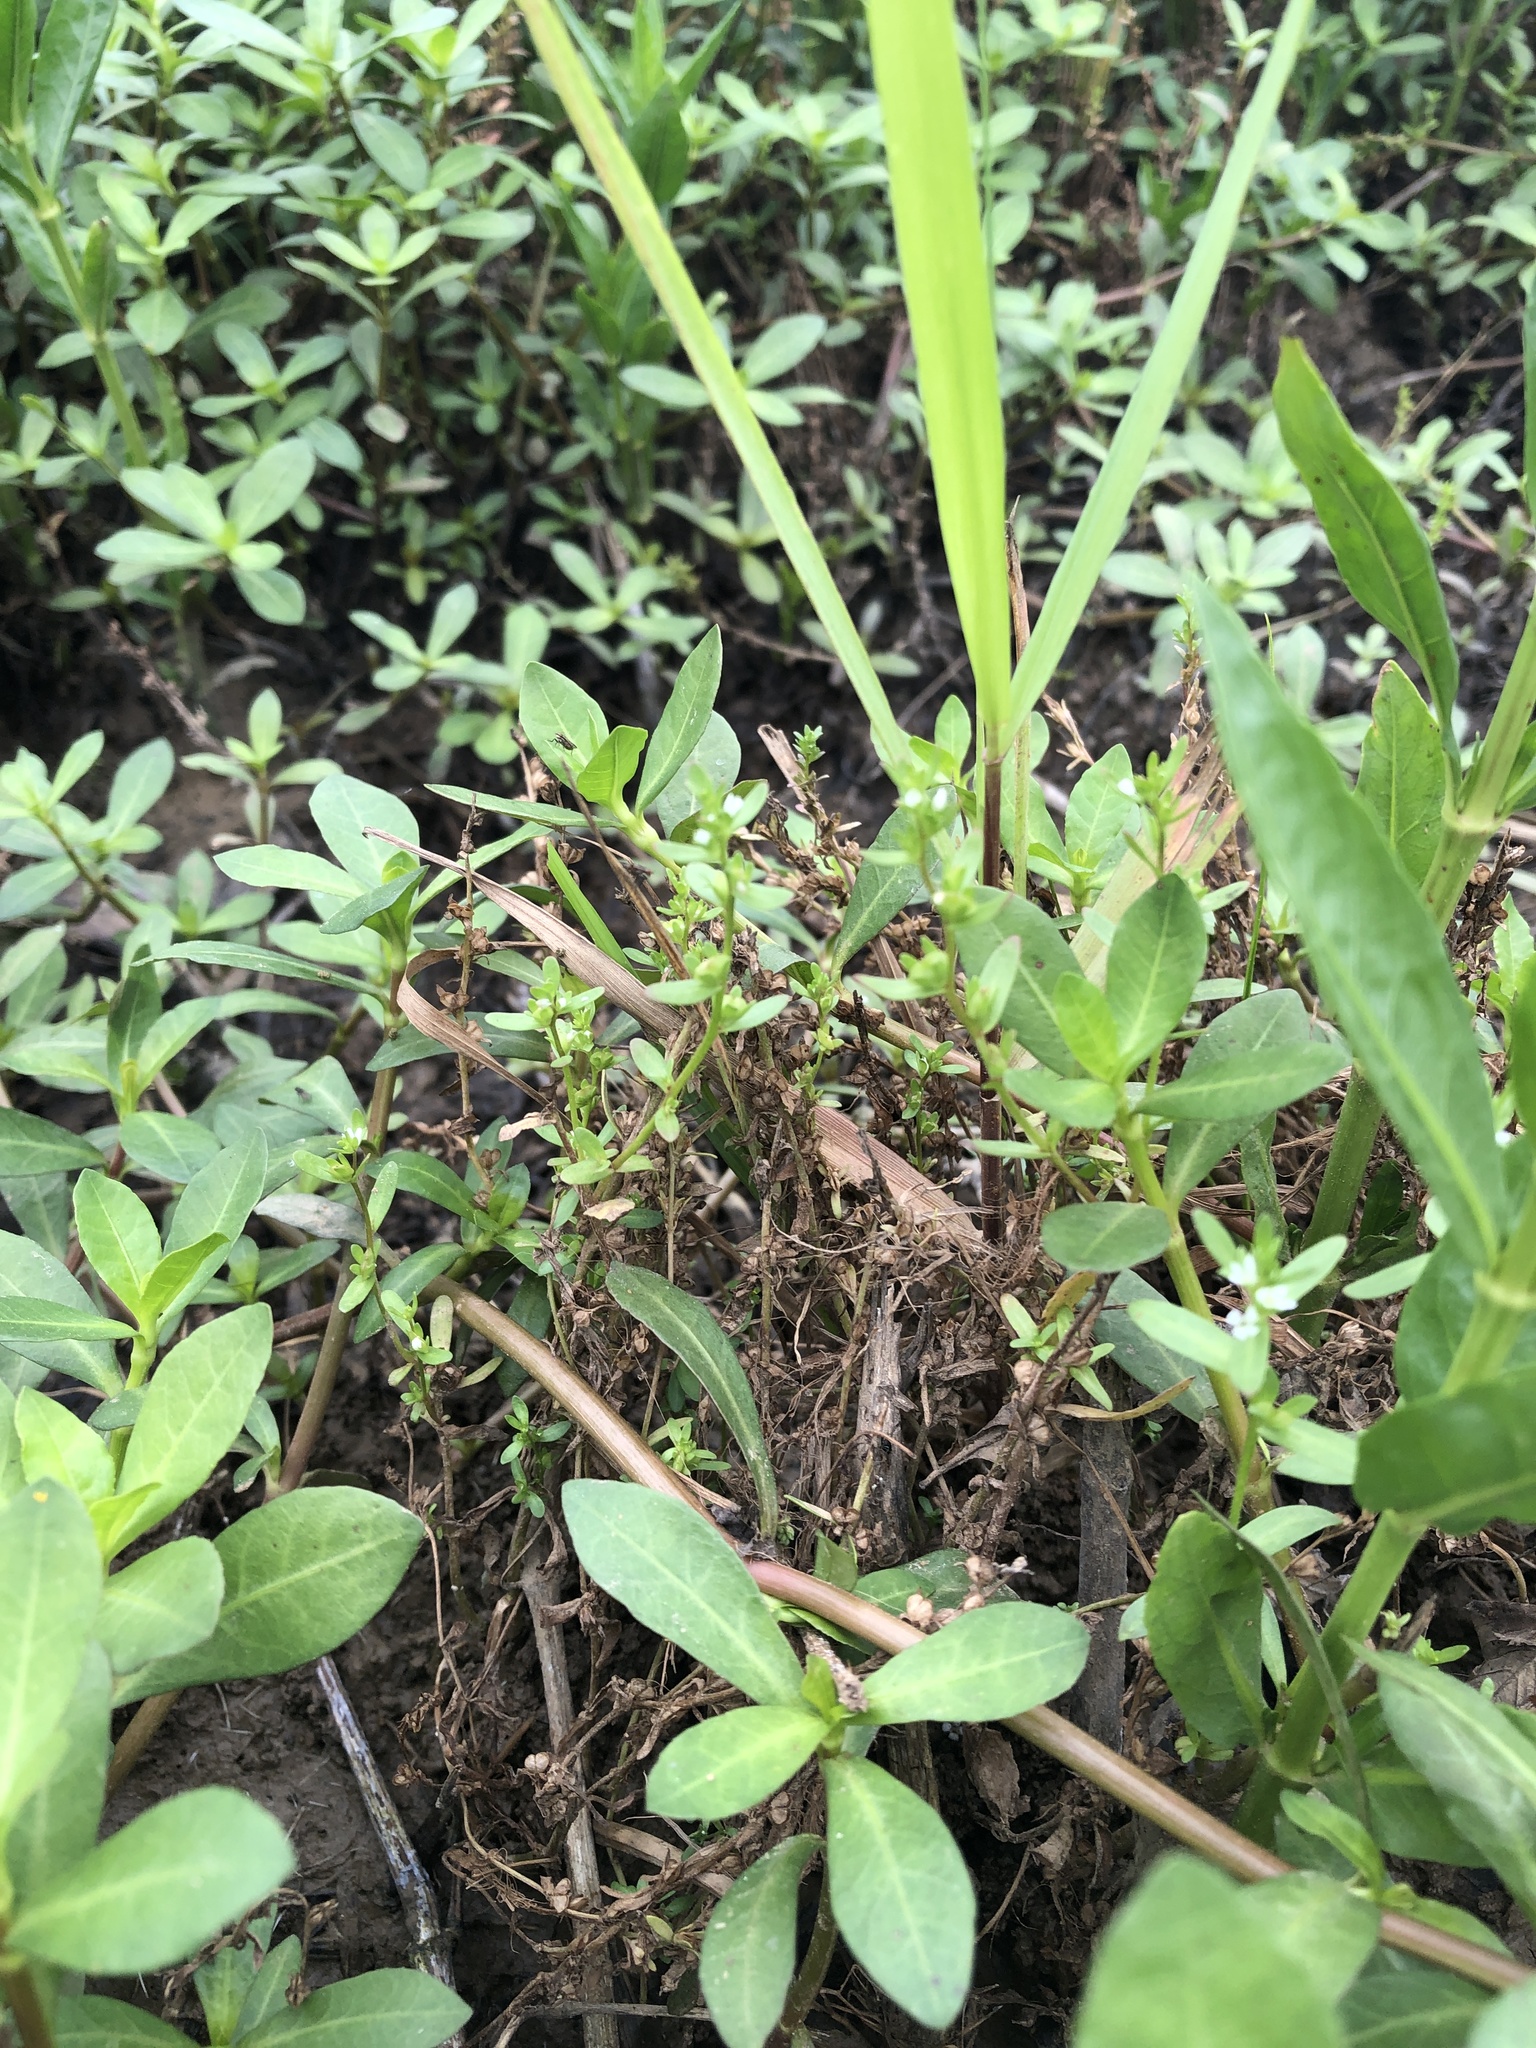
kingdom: Plantae
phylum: Tracheophyta
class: Magnoliopsida
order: Lamiales
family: Plantaginaceae
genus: Veronica
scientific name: Veronica peregrina
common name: Neckweed
